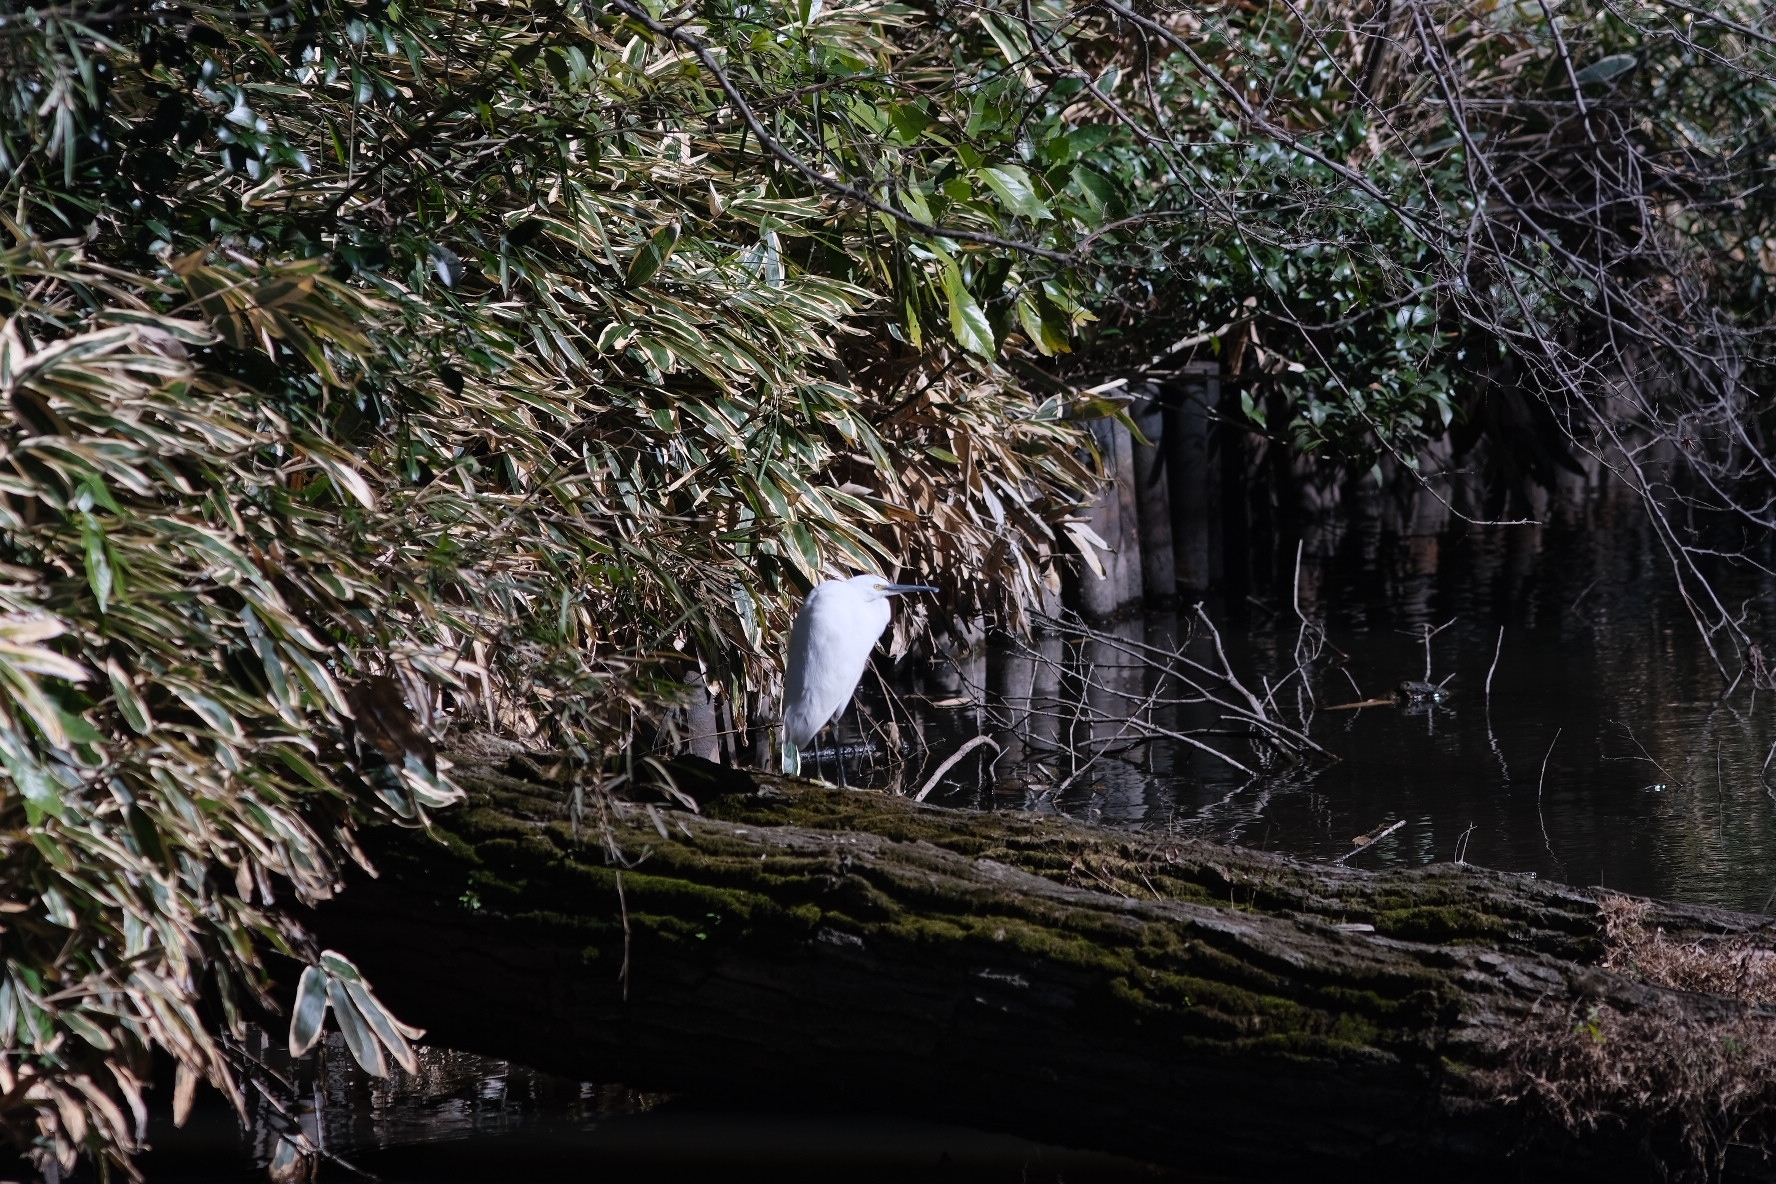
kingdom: Animalia
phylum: Chordata
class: Aves
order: Pelecaniformes
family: Ardeidae
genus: Egretta
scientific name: Egretta garzetta
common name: Little egret
